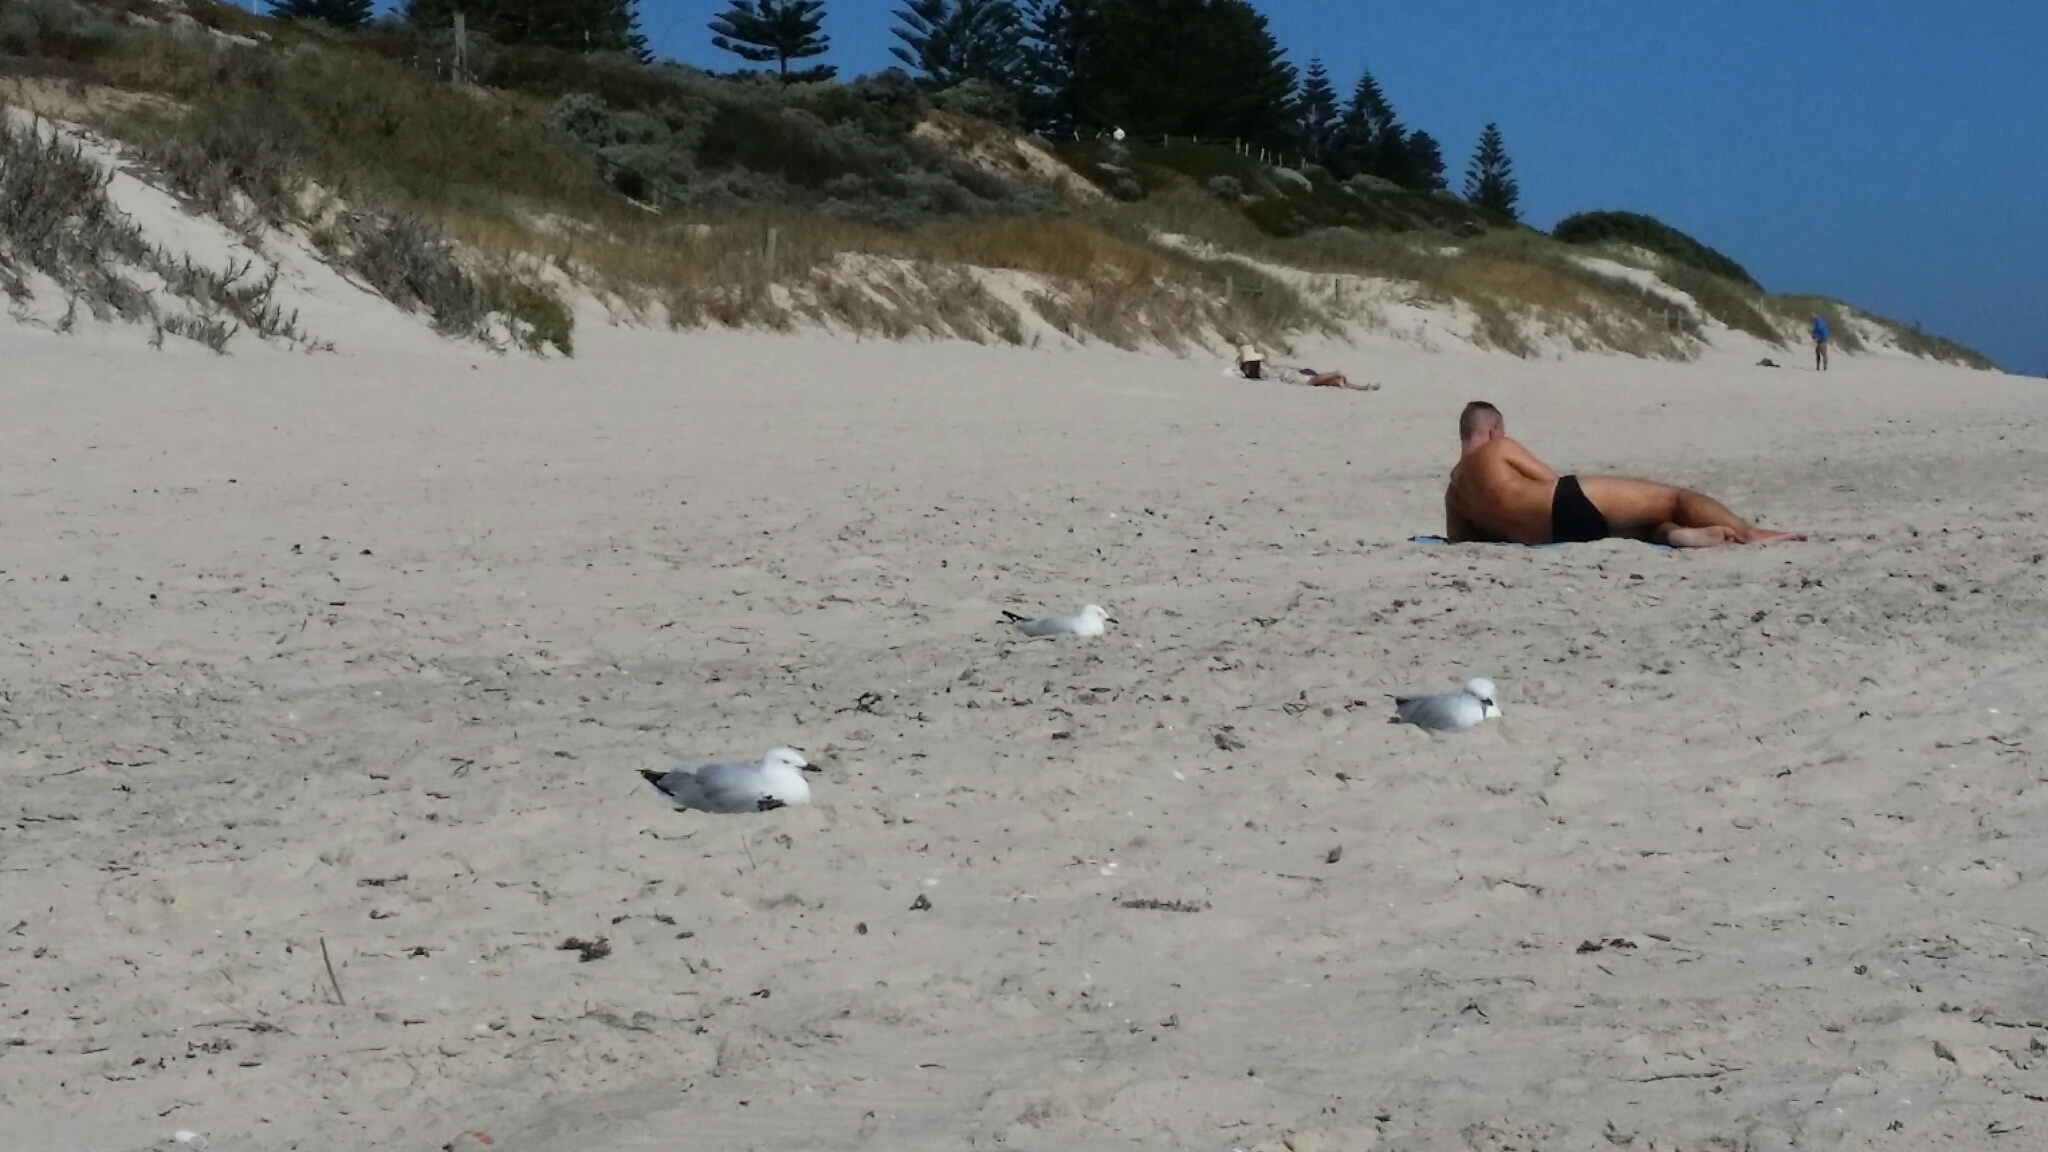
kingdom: Animalia
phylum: Chordata
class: Aves
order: Charadriiformes
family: Laridae
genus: Chroicocephalus
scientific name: Chroicocephalus novaehollandiae
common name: Silver gull
